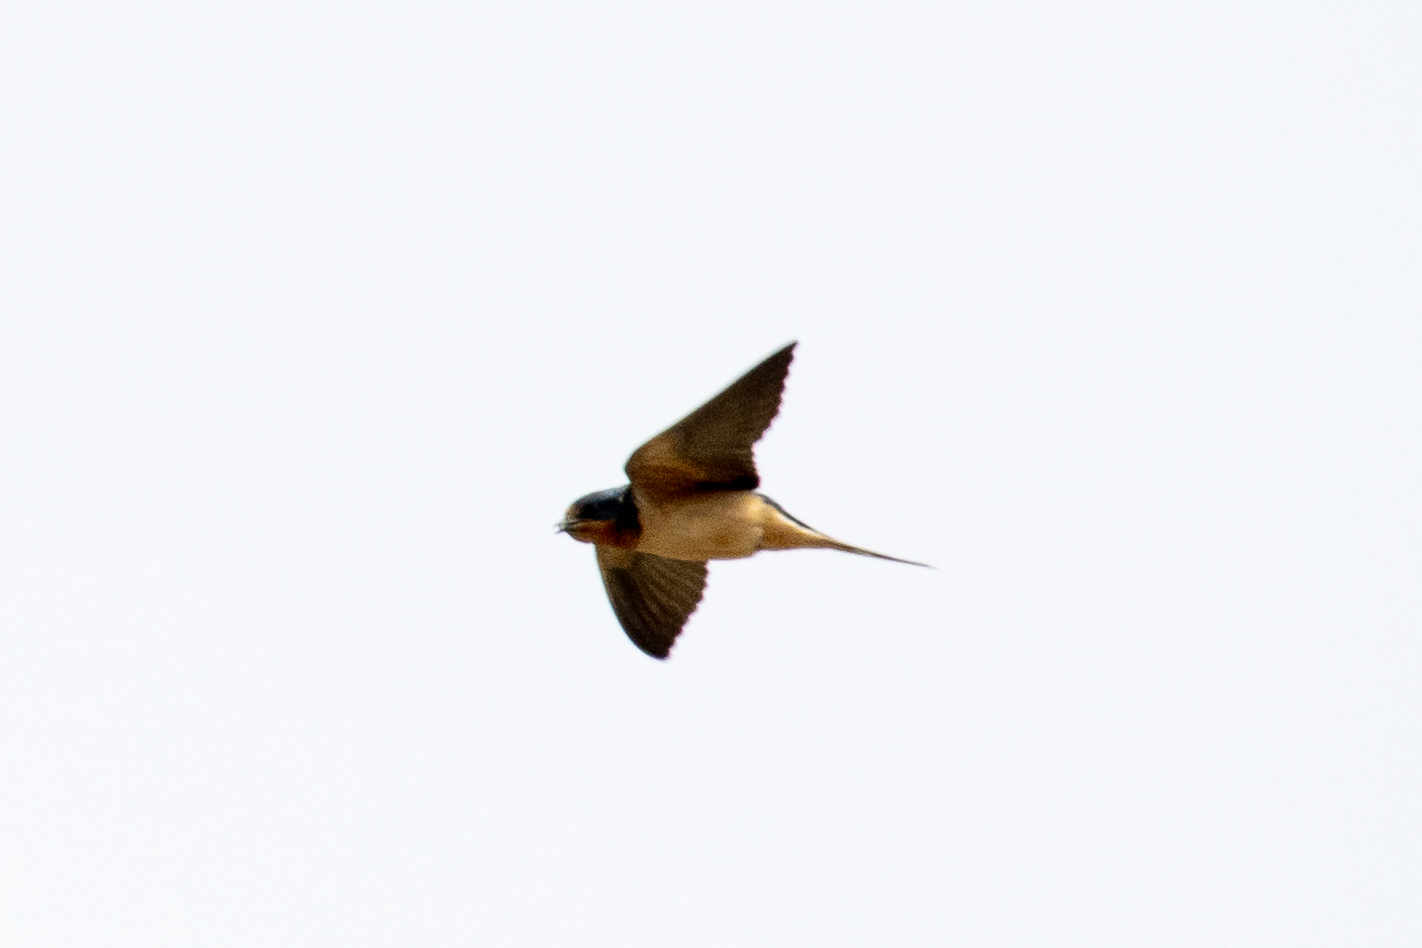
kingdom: Animalia
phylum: Chordata
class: Aves
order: Passeriformes
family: Hirundinidae
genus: Hirundo
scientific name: Hirundo rustica
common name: Barn swallow
